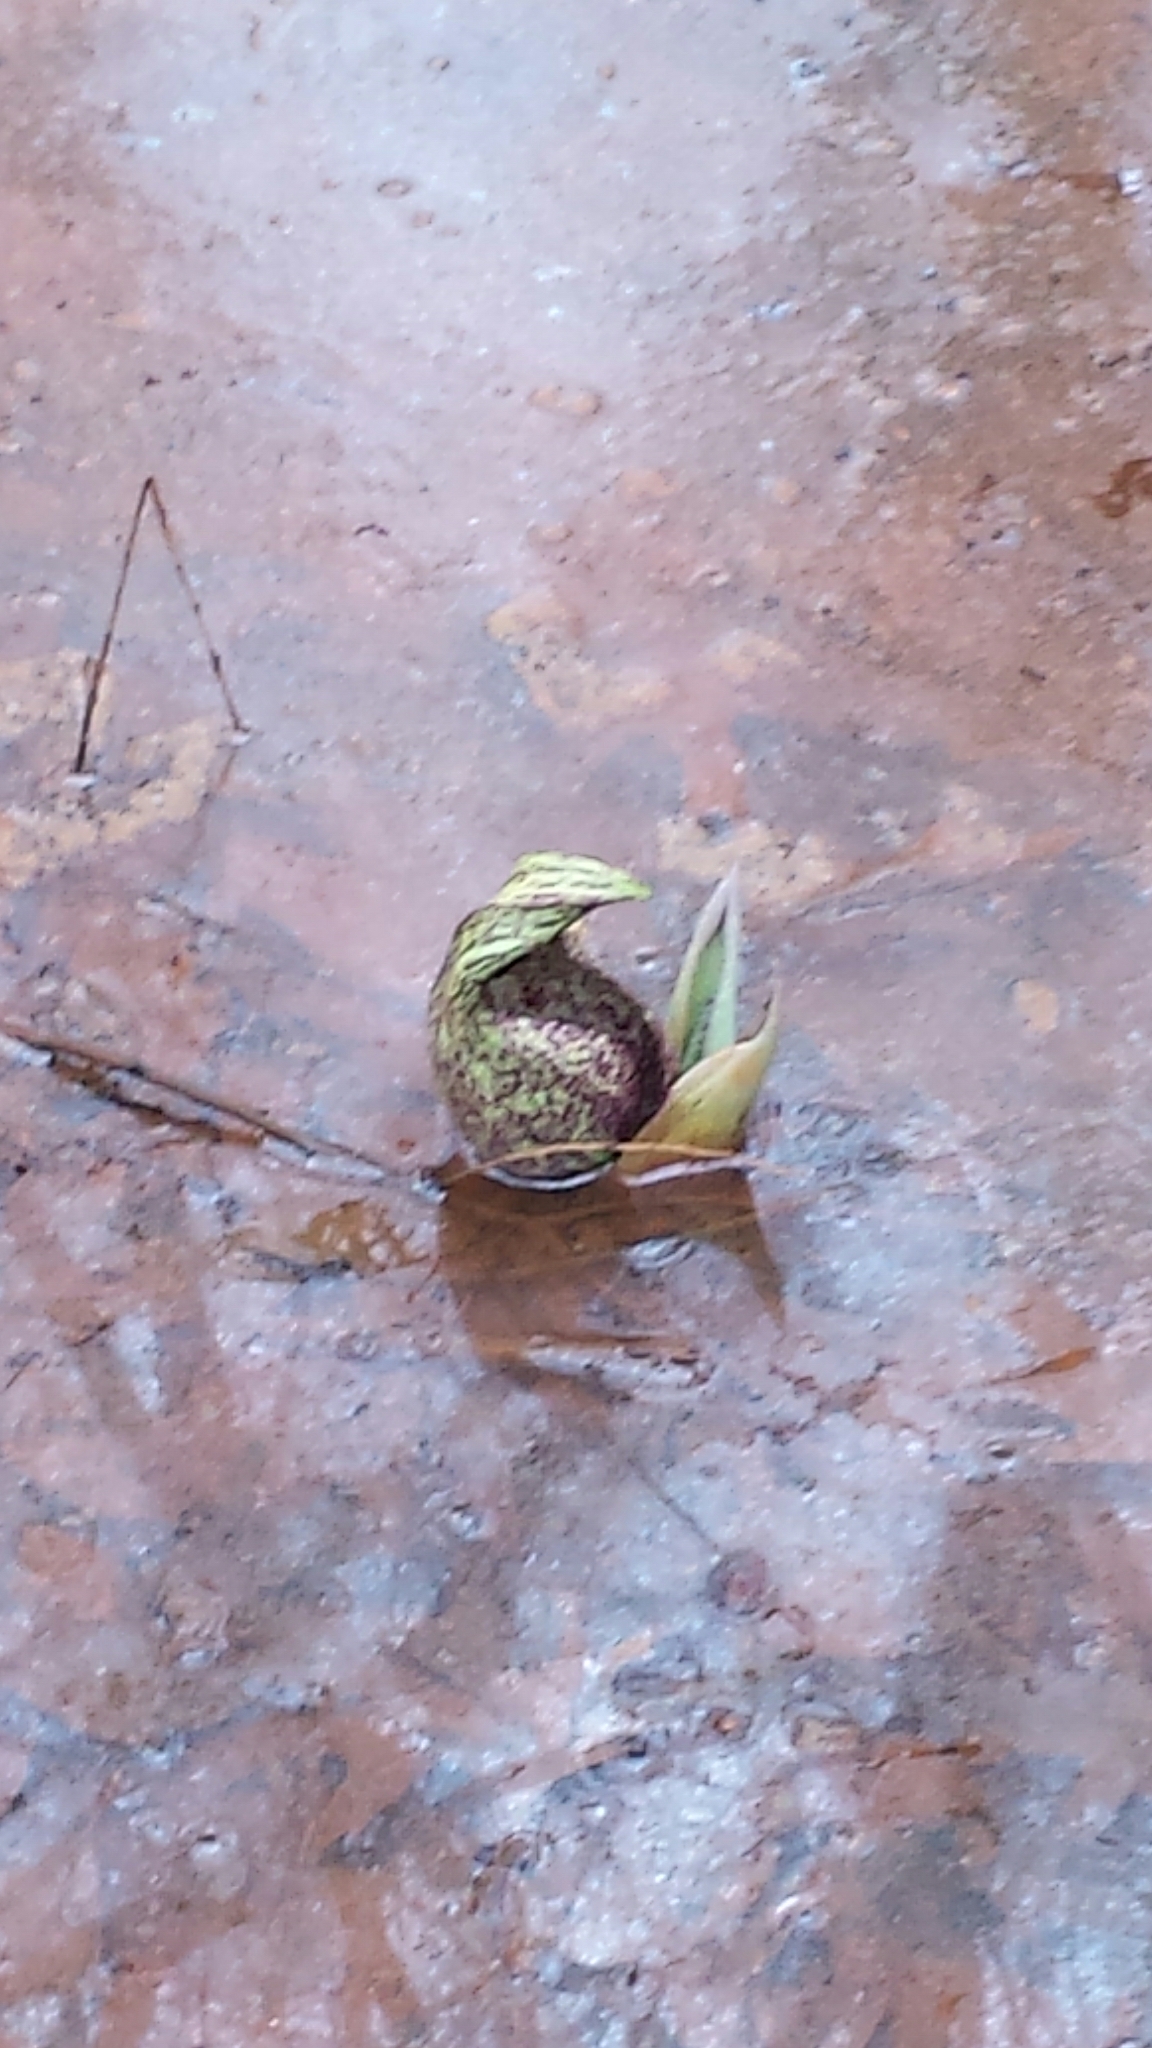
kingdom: Plantae
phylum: Tracheophyta
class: Liliopsida
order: Alismatales
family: Araceae
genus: Symplocarpus
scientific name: Symplocarpus foetidus
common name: Eastern skunk cabbage
